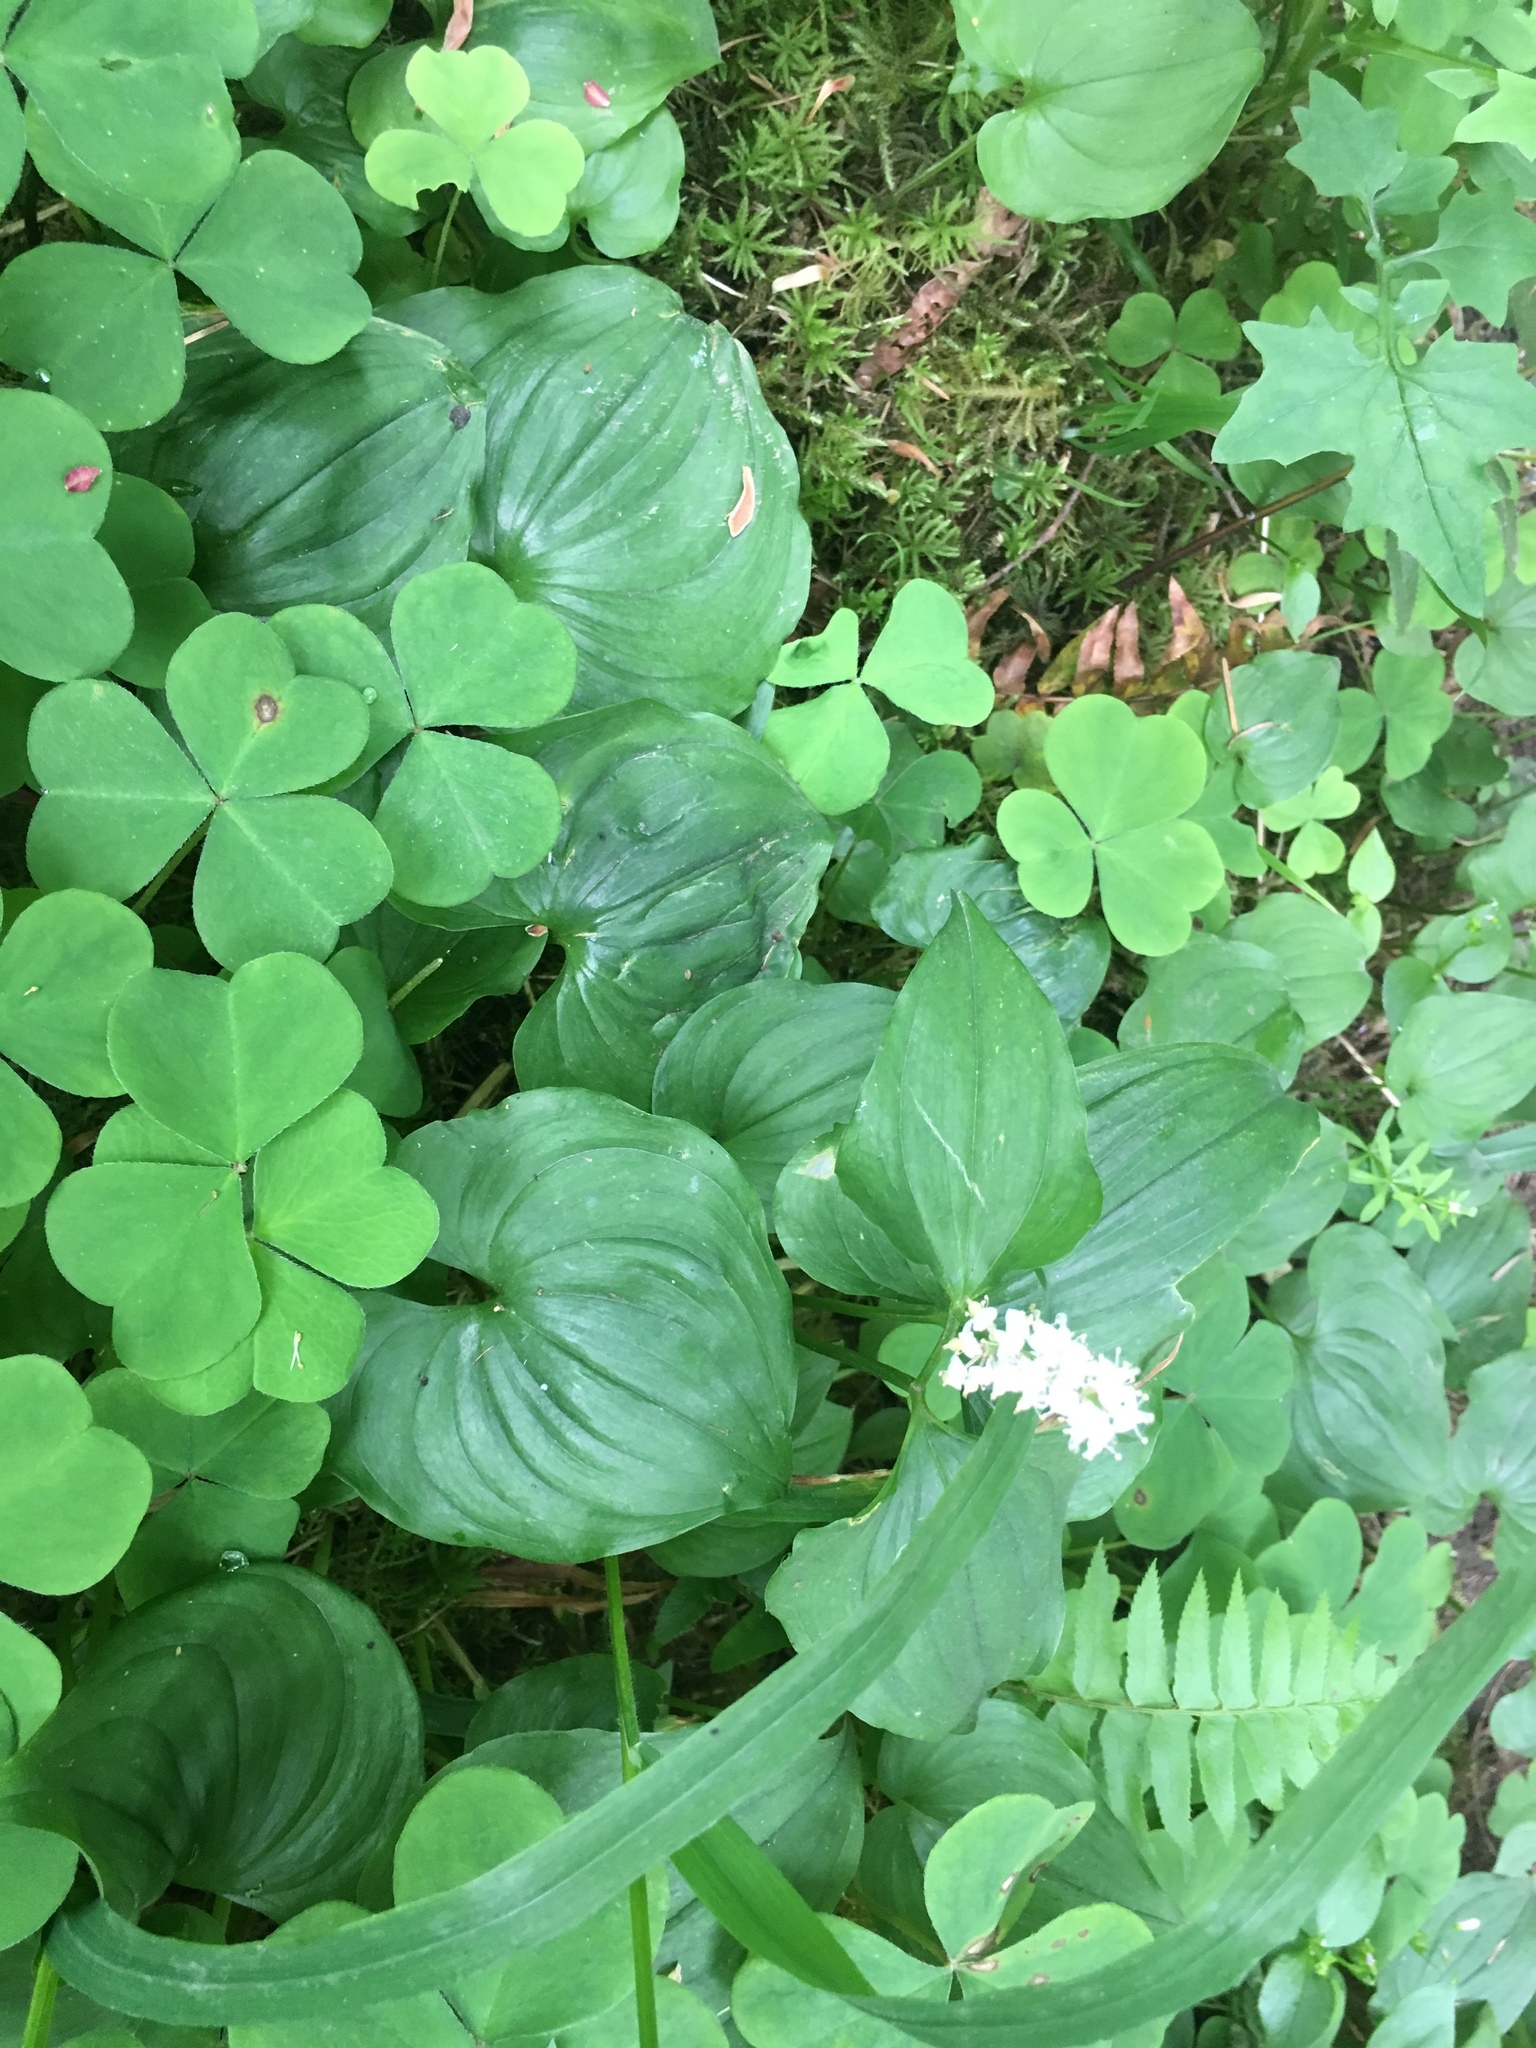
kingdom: Plantae
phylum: Tracheophyta
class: Liliopsida
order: Asparagales
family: Asparagaceae
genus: Maianthemum
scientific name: Maianthemum dilatatum
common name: False lily-of-the-valley
